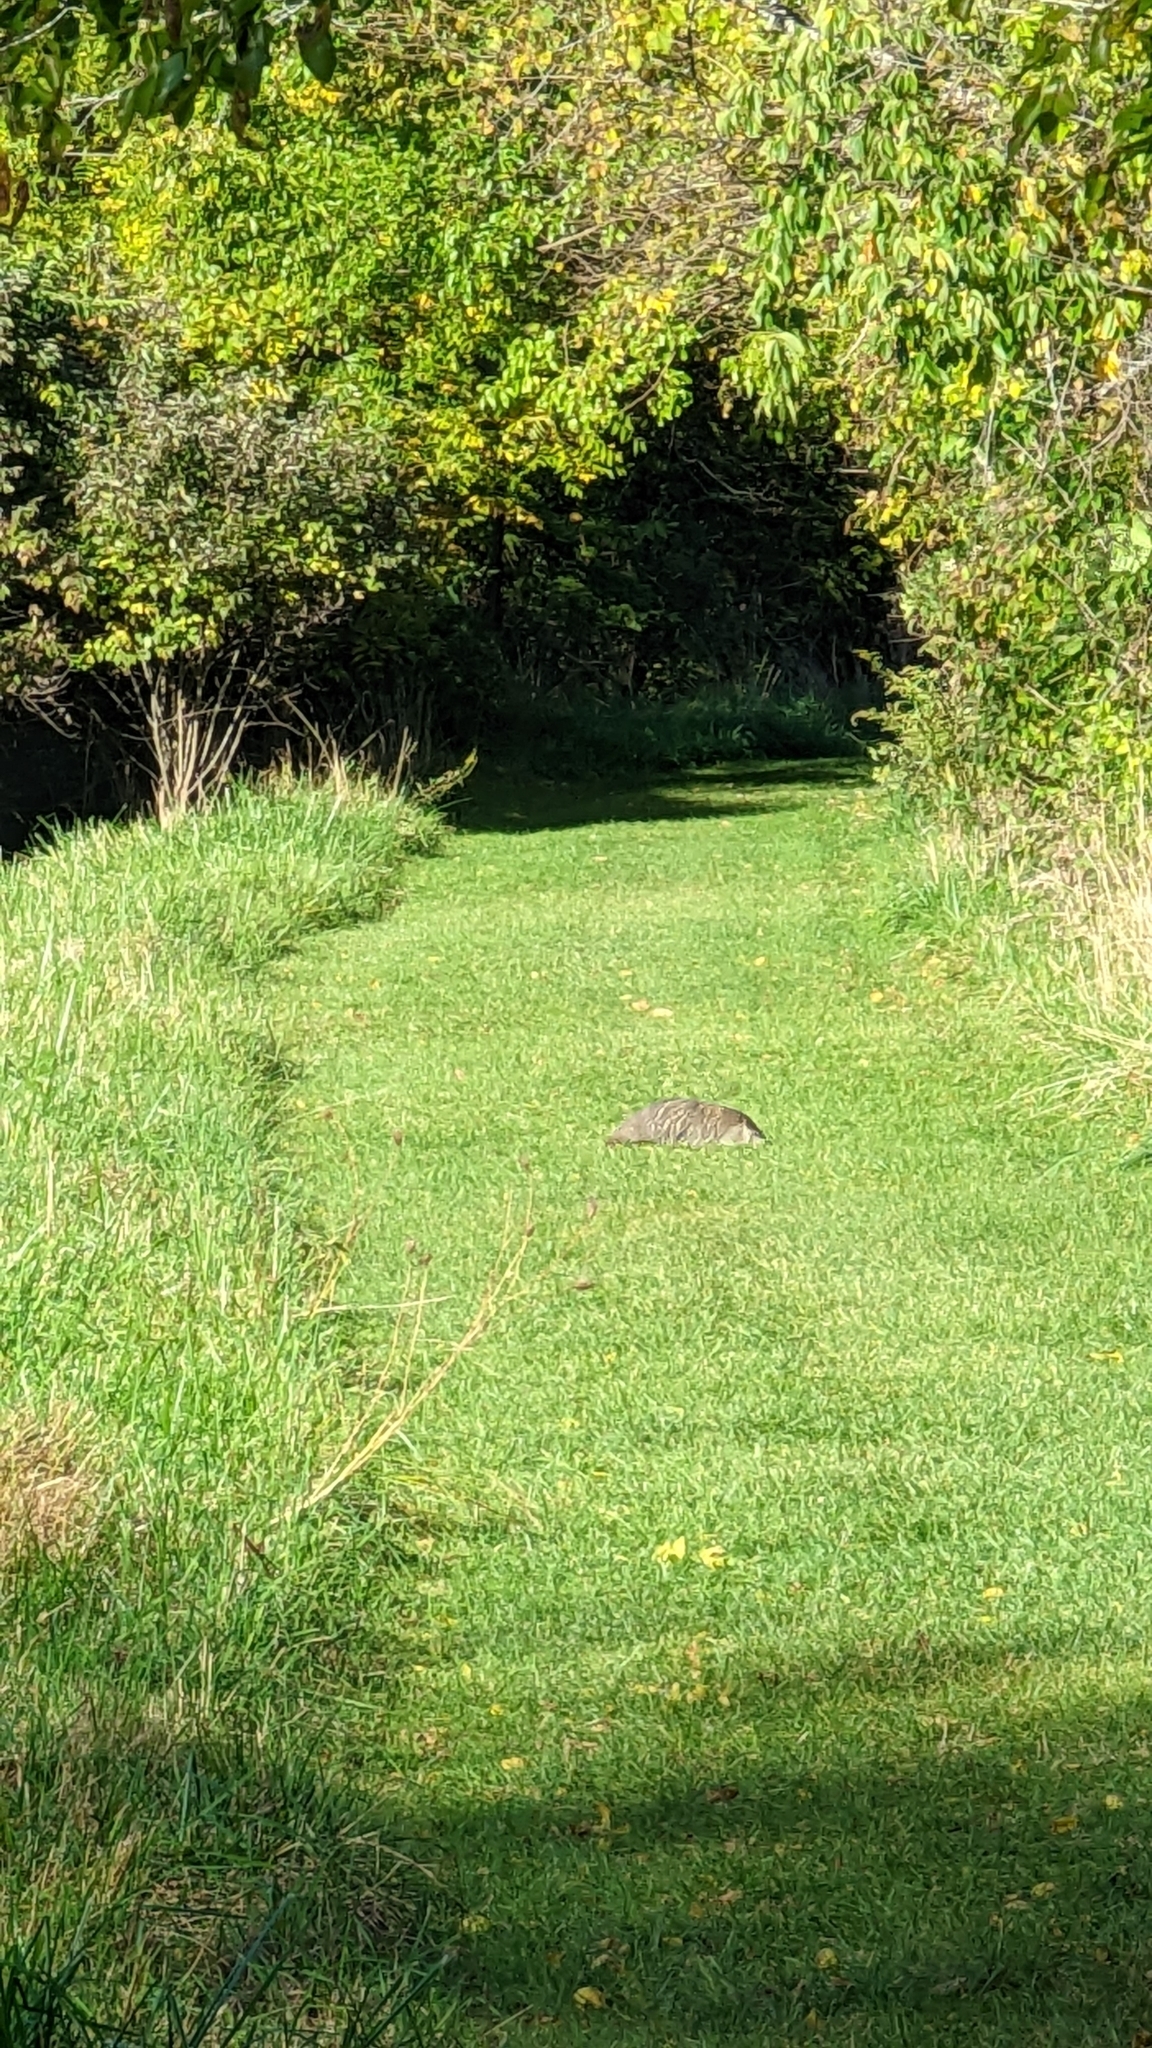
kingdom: Animalia
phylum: Chordata
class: Mammalia
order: Rodentia
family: Sciuridae
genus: Marmota
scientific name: Marmota monax
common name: Groundhog
